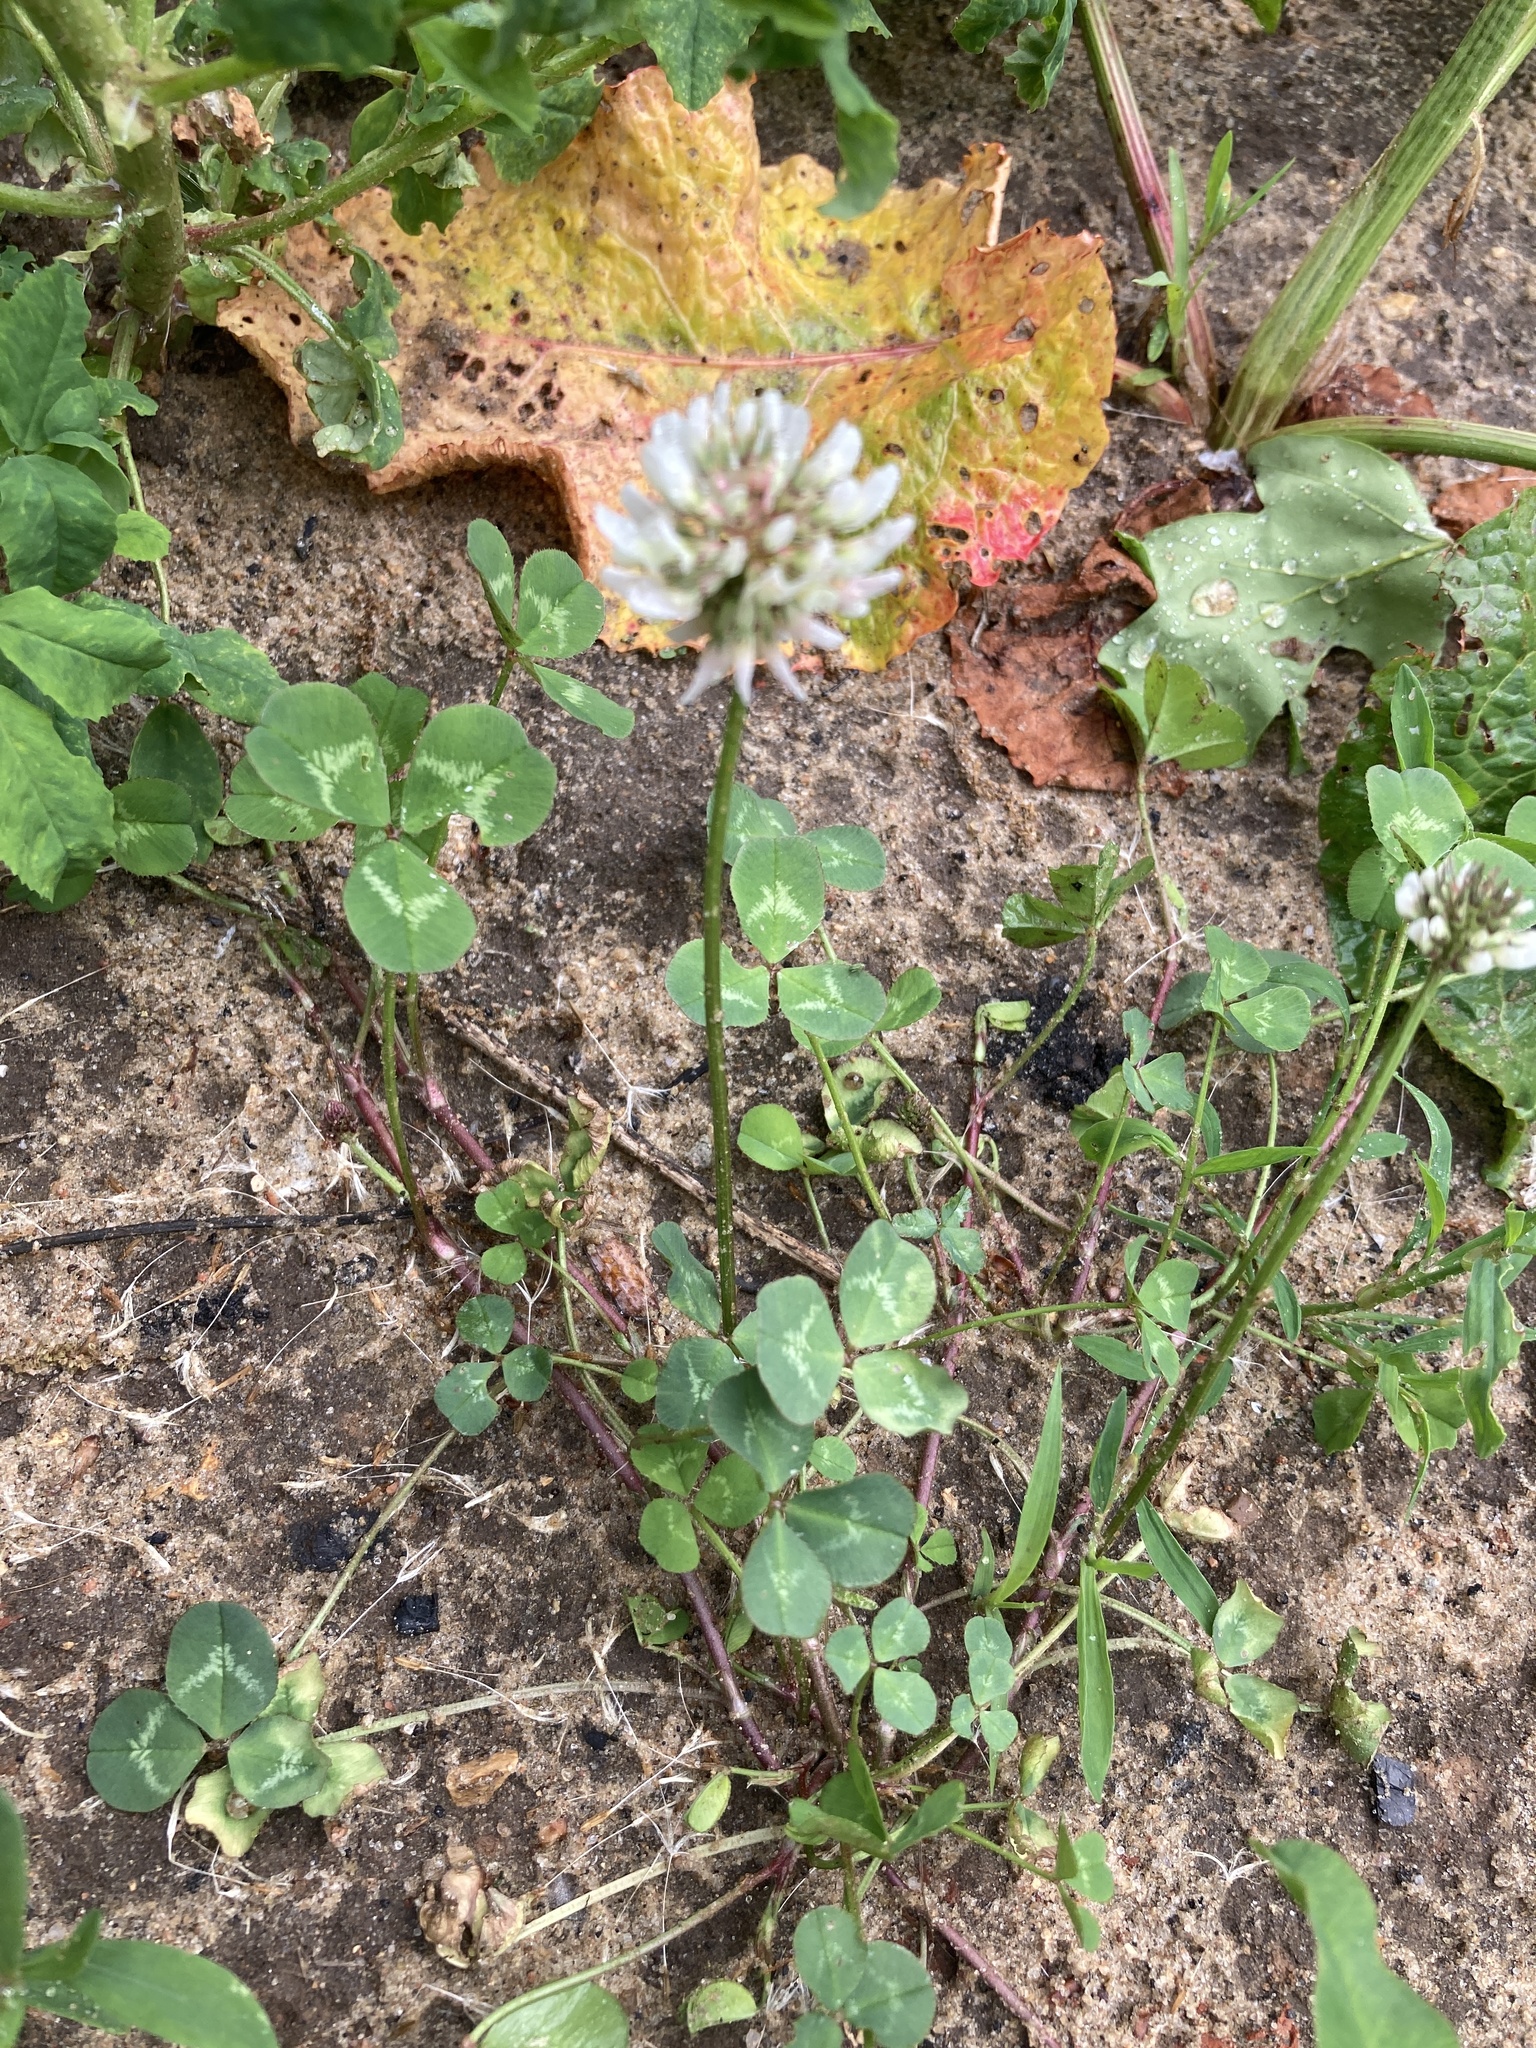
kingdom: Plantae
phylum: Tracheophyta
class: Magnoliopsida
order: Fabales
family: Fabaceae
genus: Trifolium
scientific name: Trifolium repens
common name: White clover
